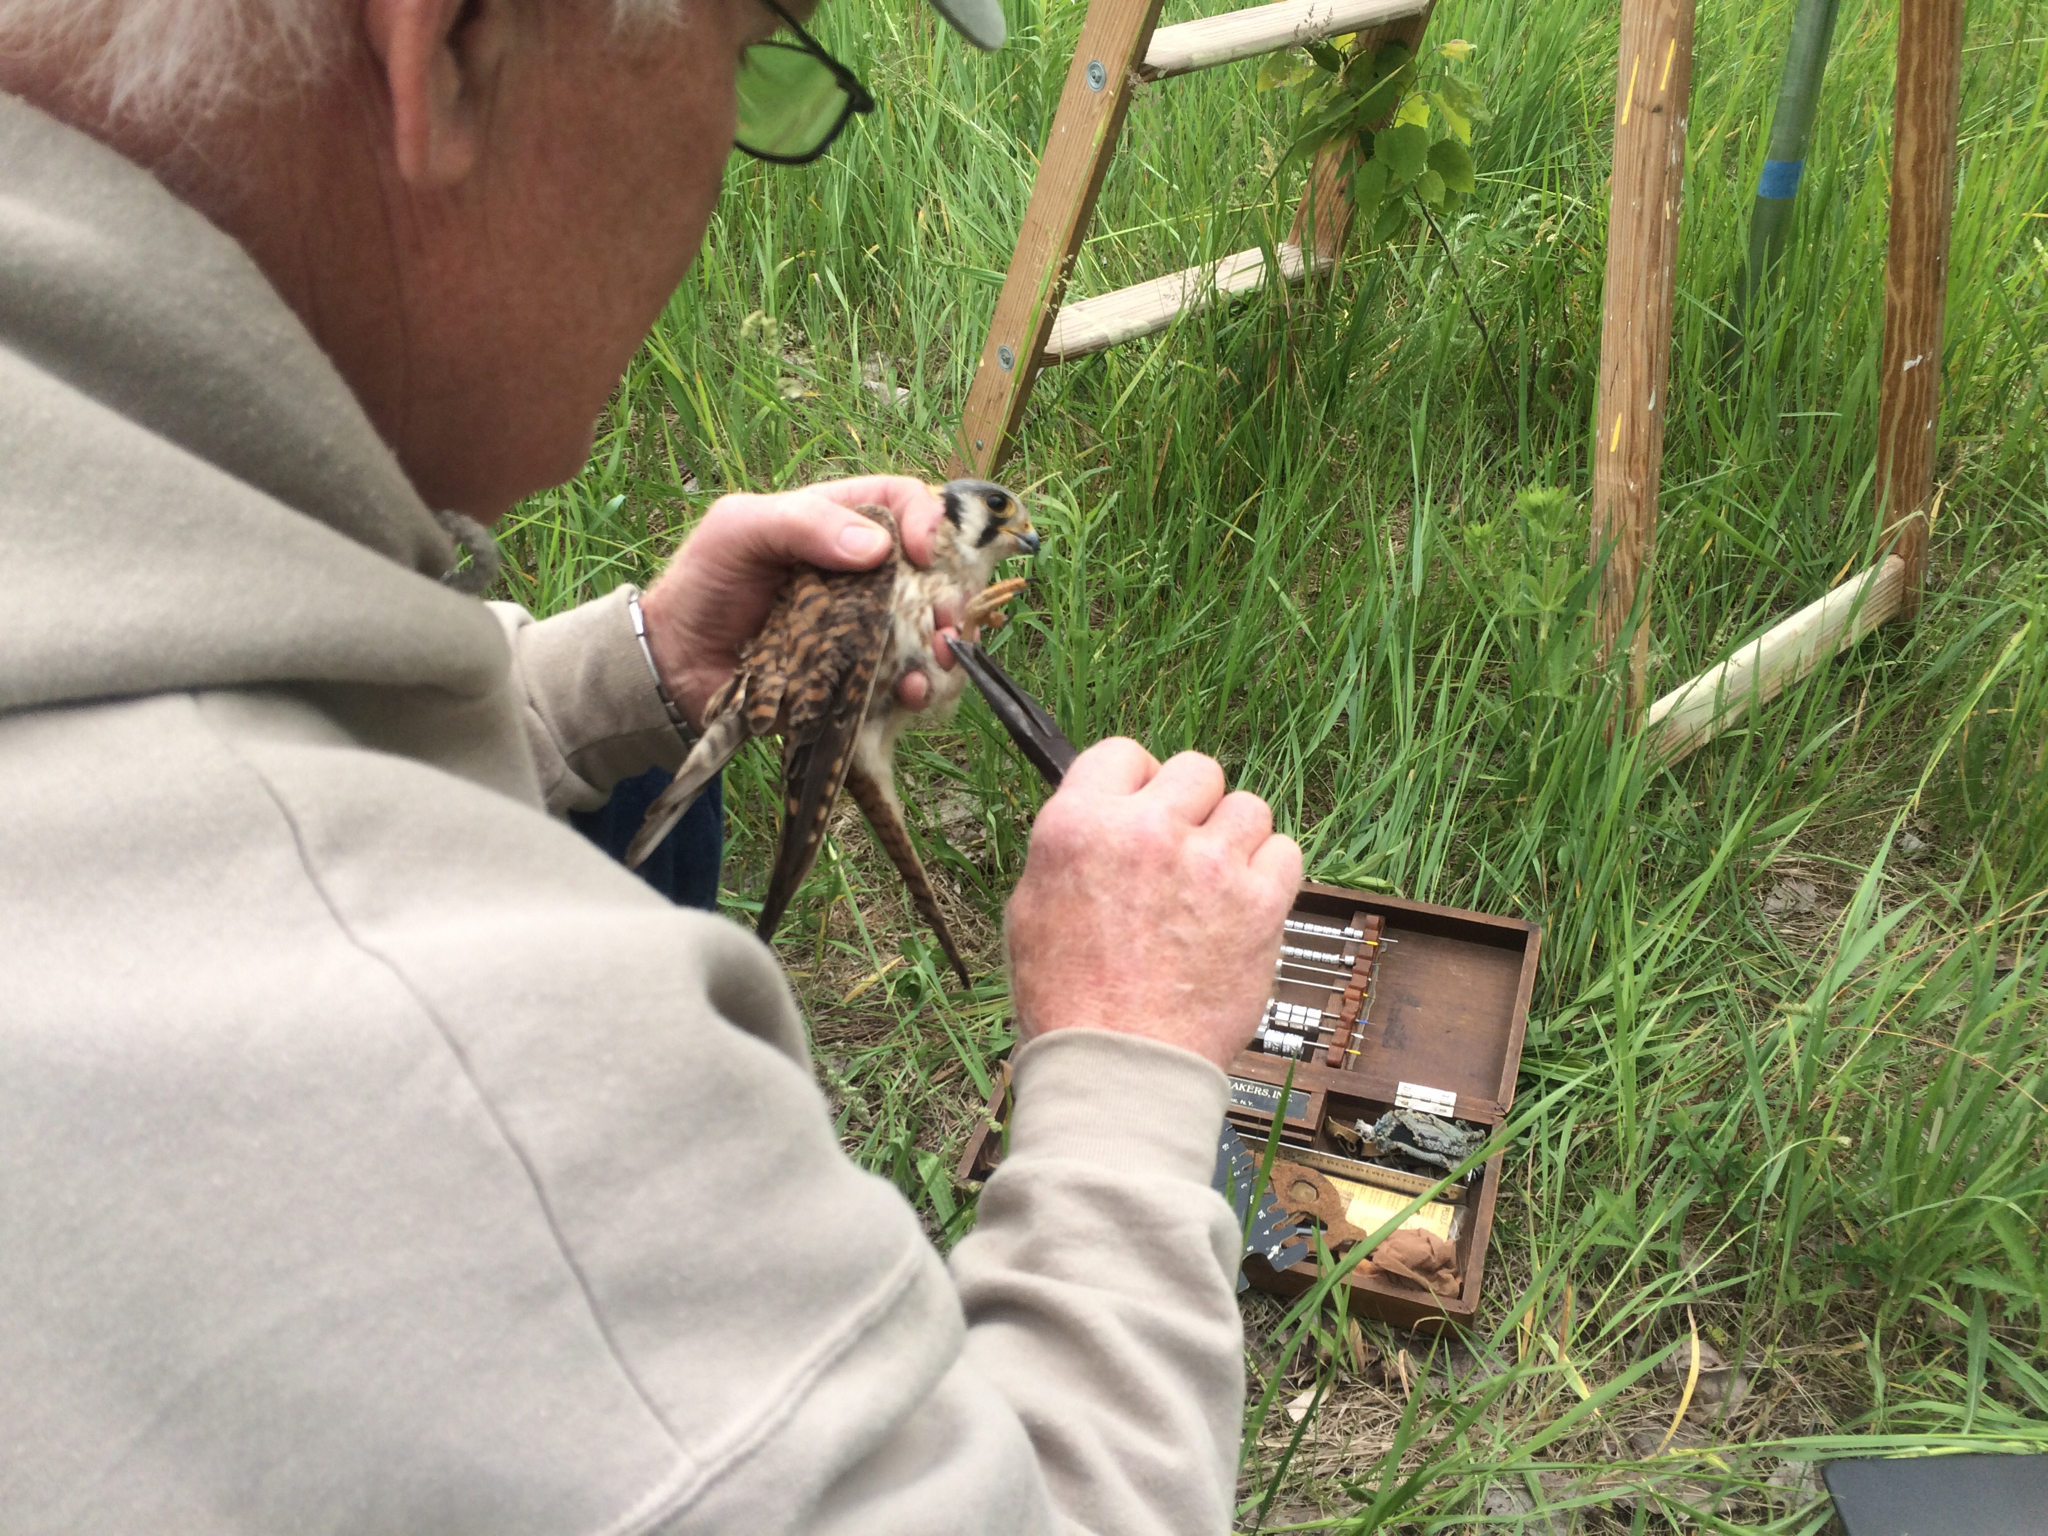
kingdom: Animalia
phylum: Chordata
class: Aves
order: Falconiformes
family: Falconidae
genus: Falco
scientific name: Falco sparverius
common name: American kestrel
